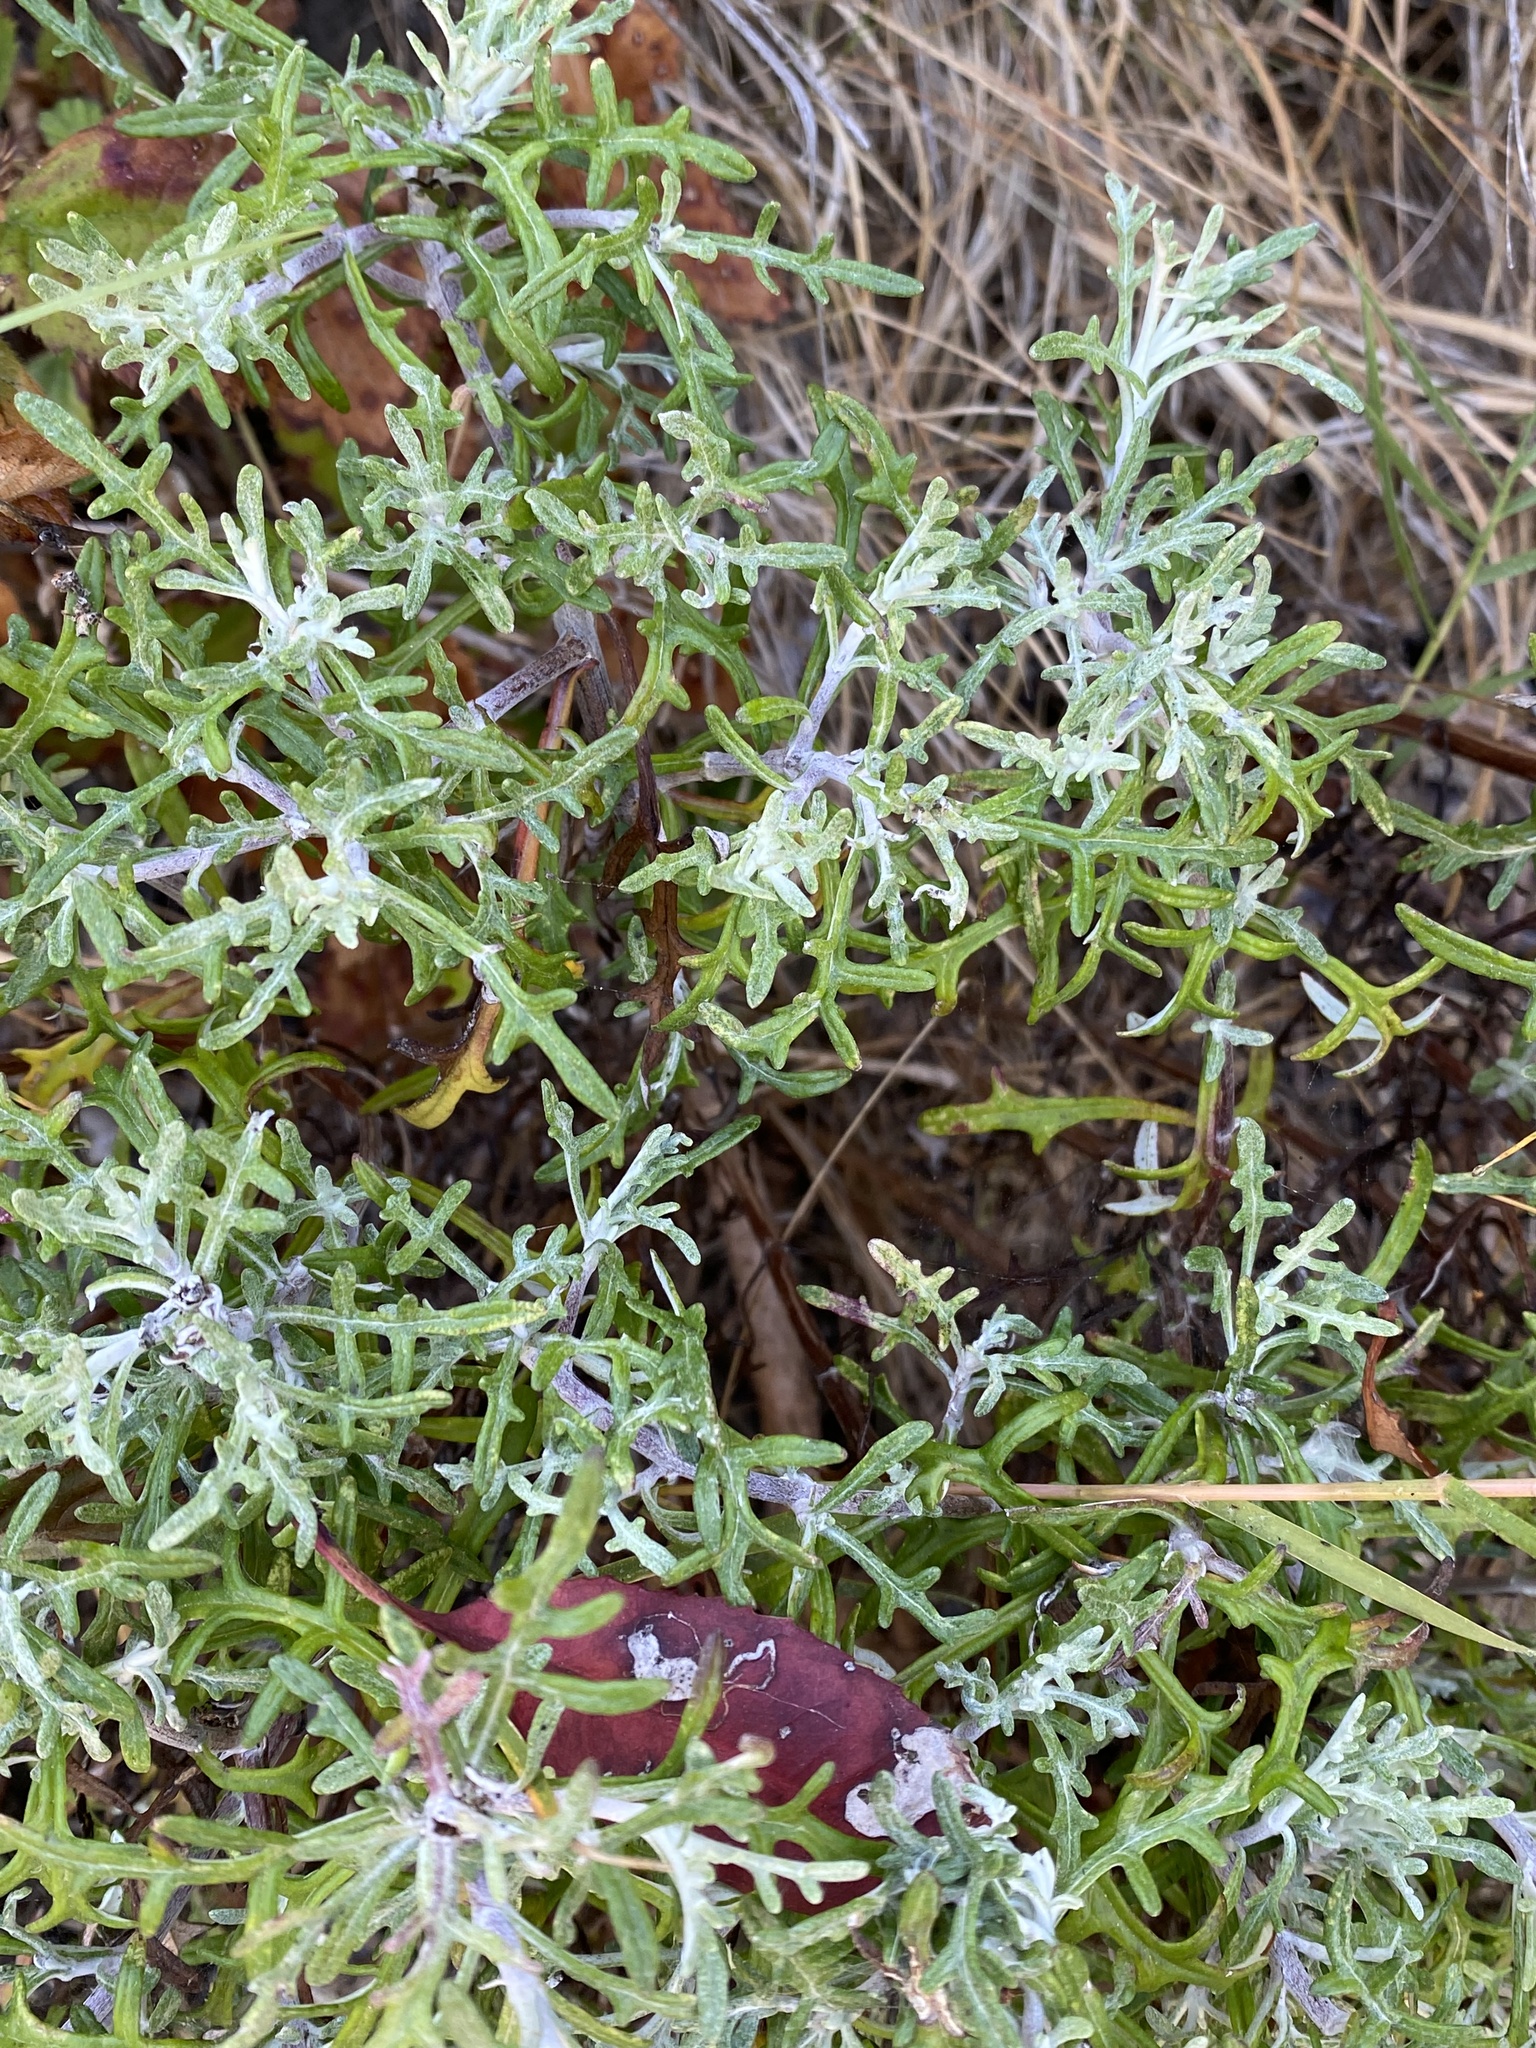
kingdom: Plantae
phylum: Tracheophyta
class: Magnoliopsida
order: Asterales
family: Asteraceae
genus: Eriophyllum
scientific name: Eriophyllum staechadifolium
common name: Lizardtail
